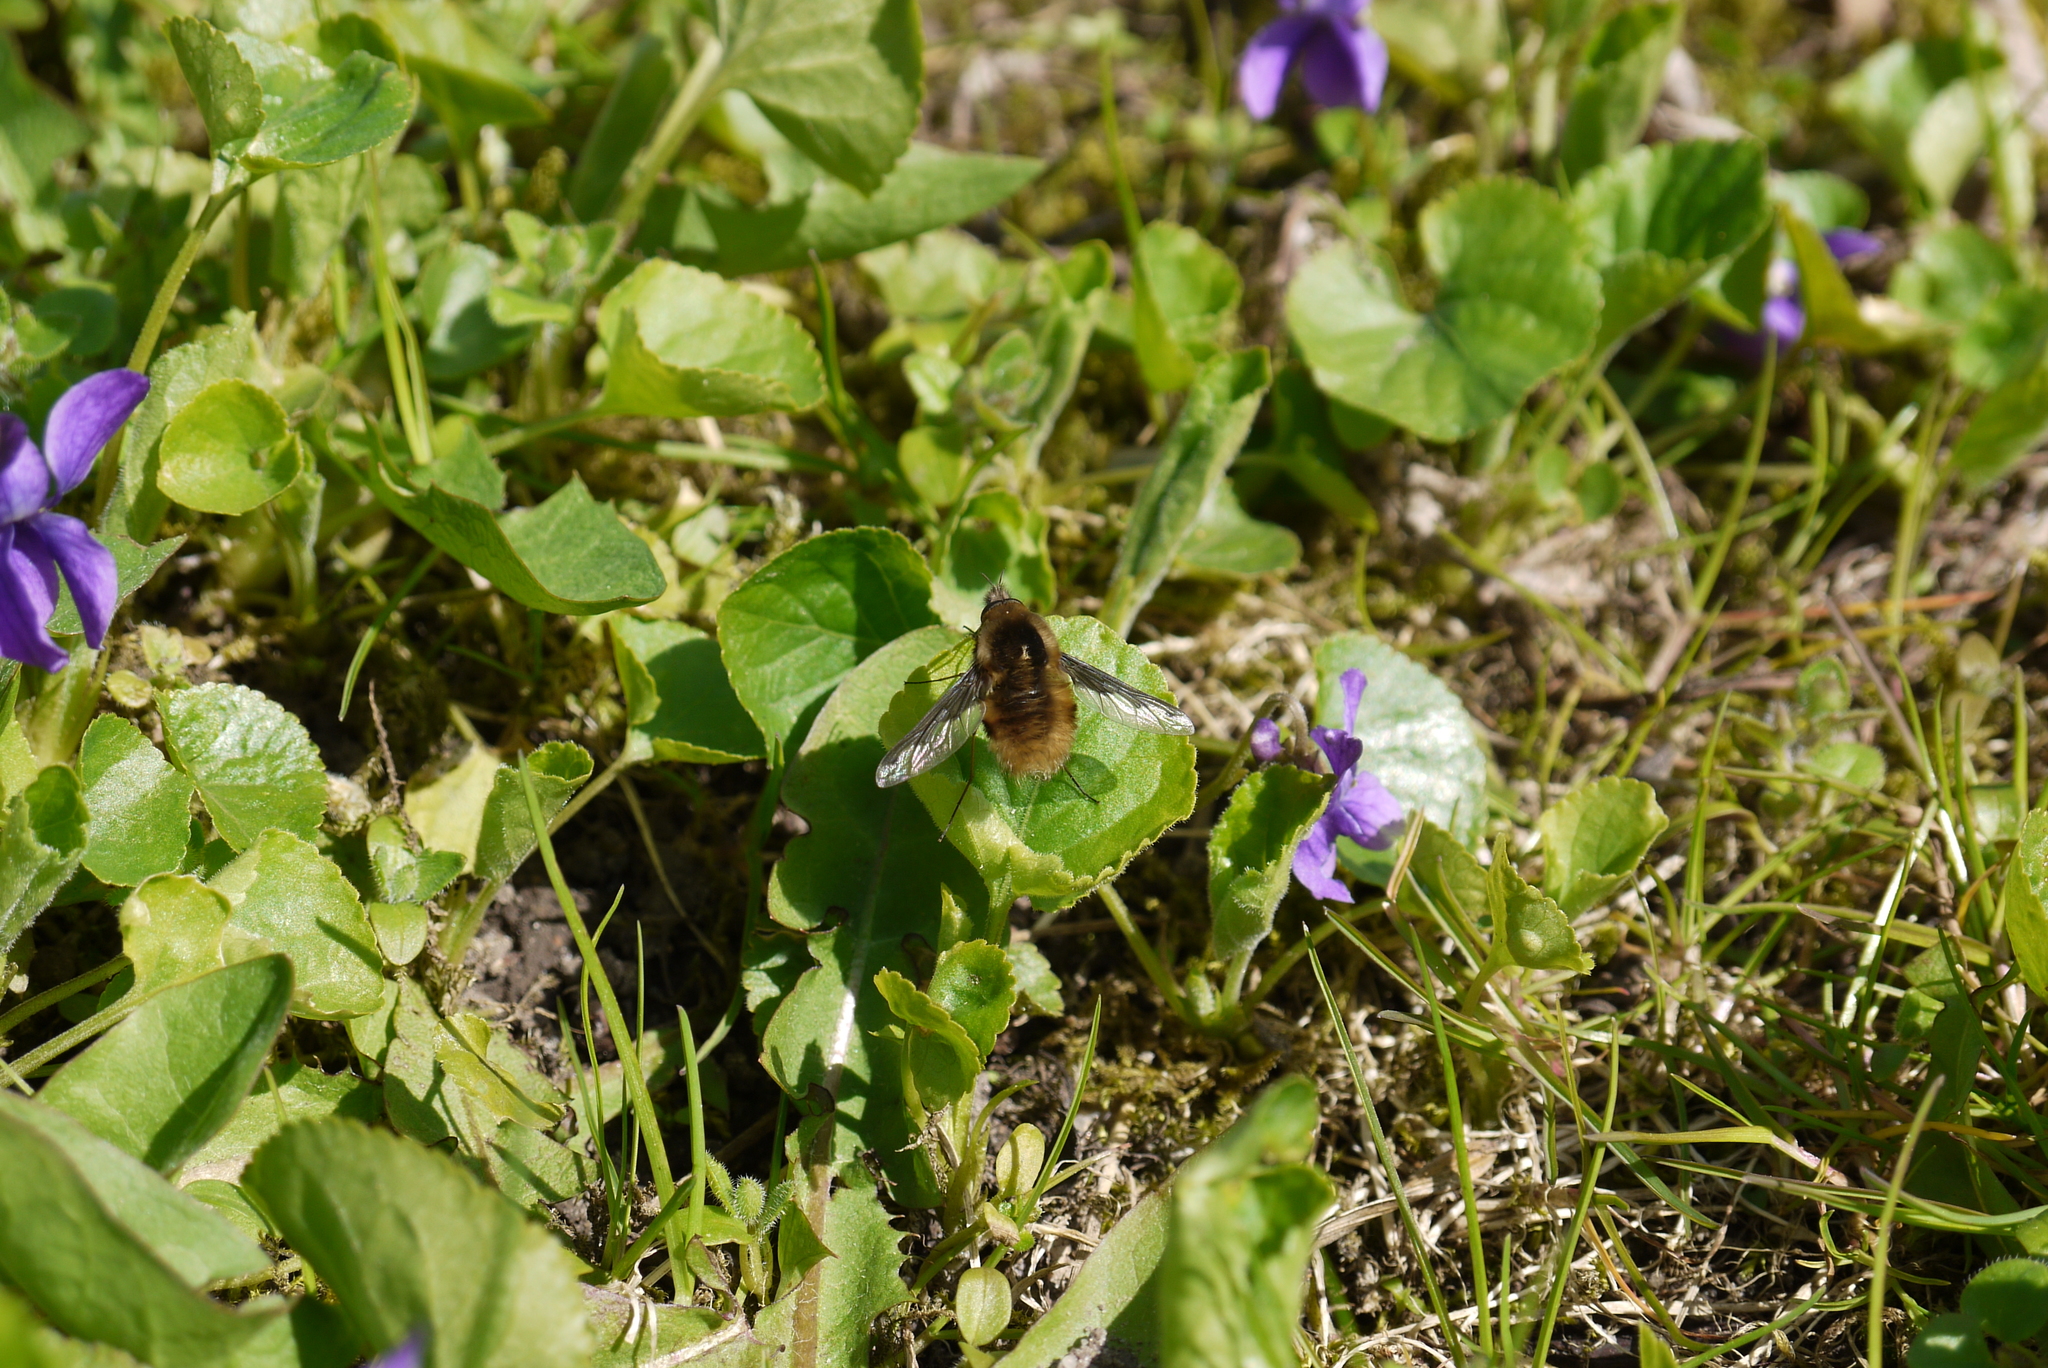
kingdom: Animalia
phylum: Arthropoda
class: Insecta
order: Diptera
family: Bombyliidae
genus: Bombylius
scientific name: Bombylius major
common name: Bee fly
